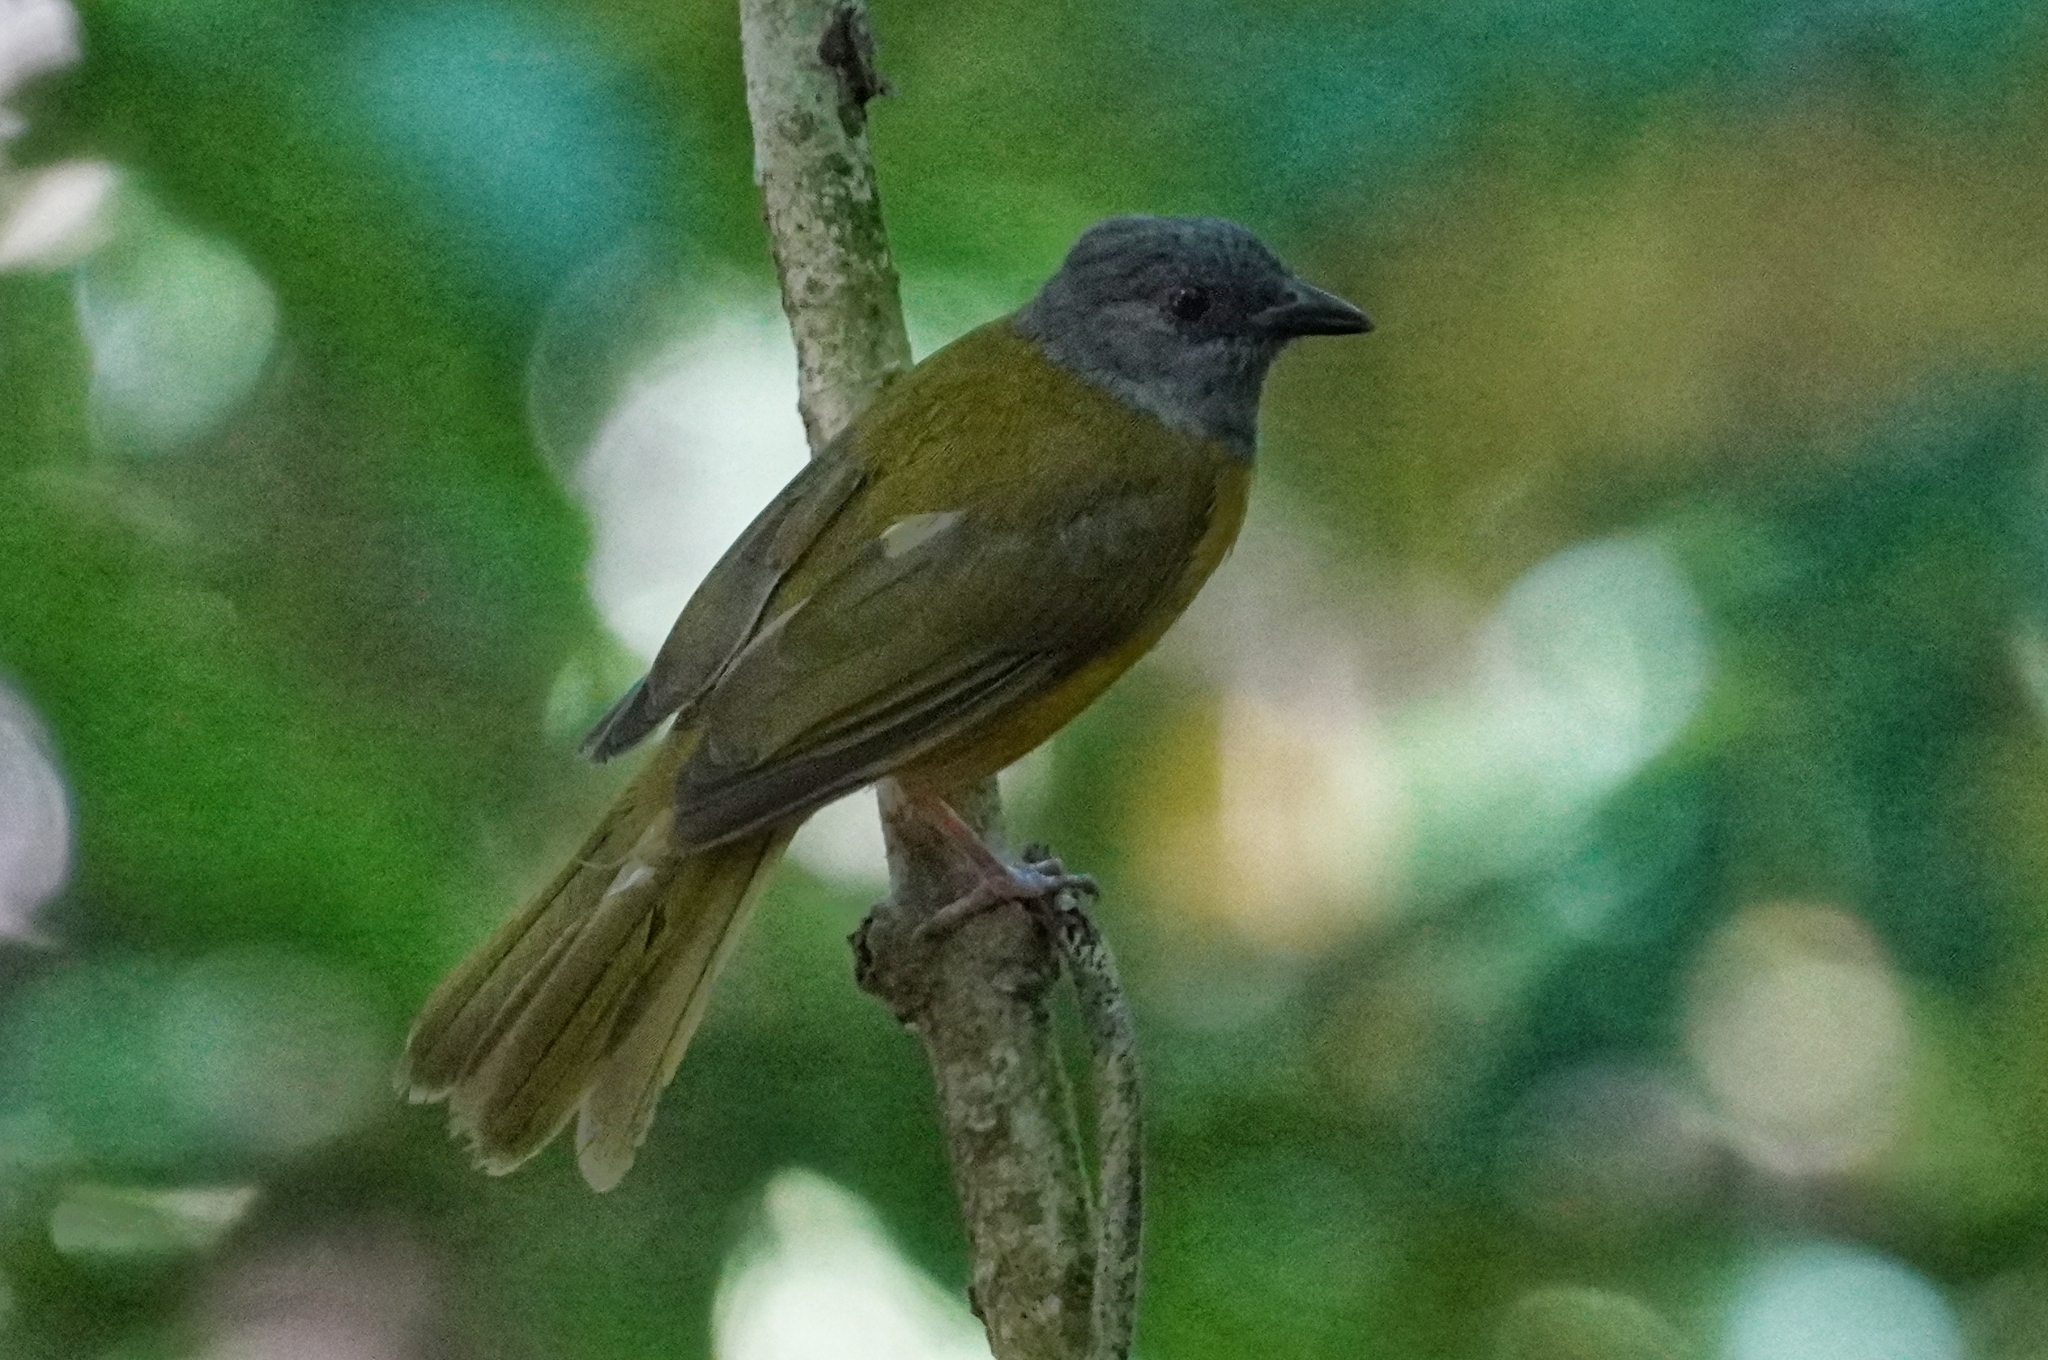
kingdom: Animalia
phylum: Chordata
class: Aves
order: Passeriformes
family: Thraupidae
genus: Eucometis
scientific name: Eucometis penicillata
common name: Grey-headed tanager
